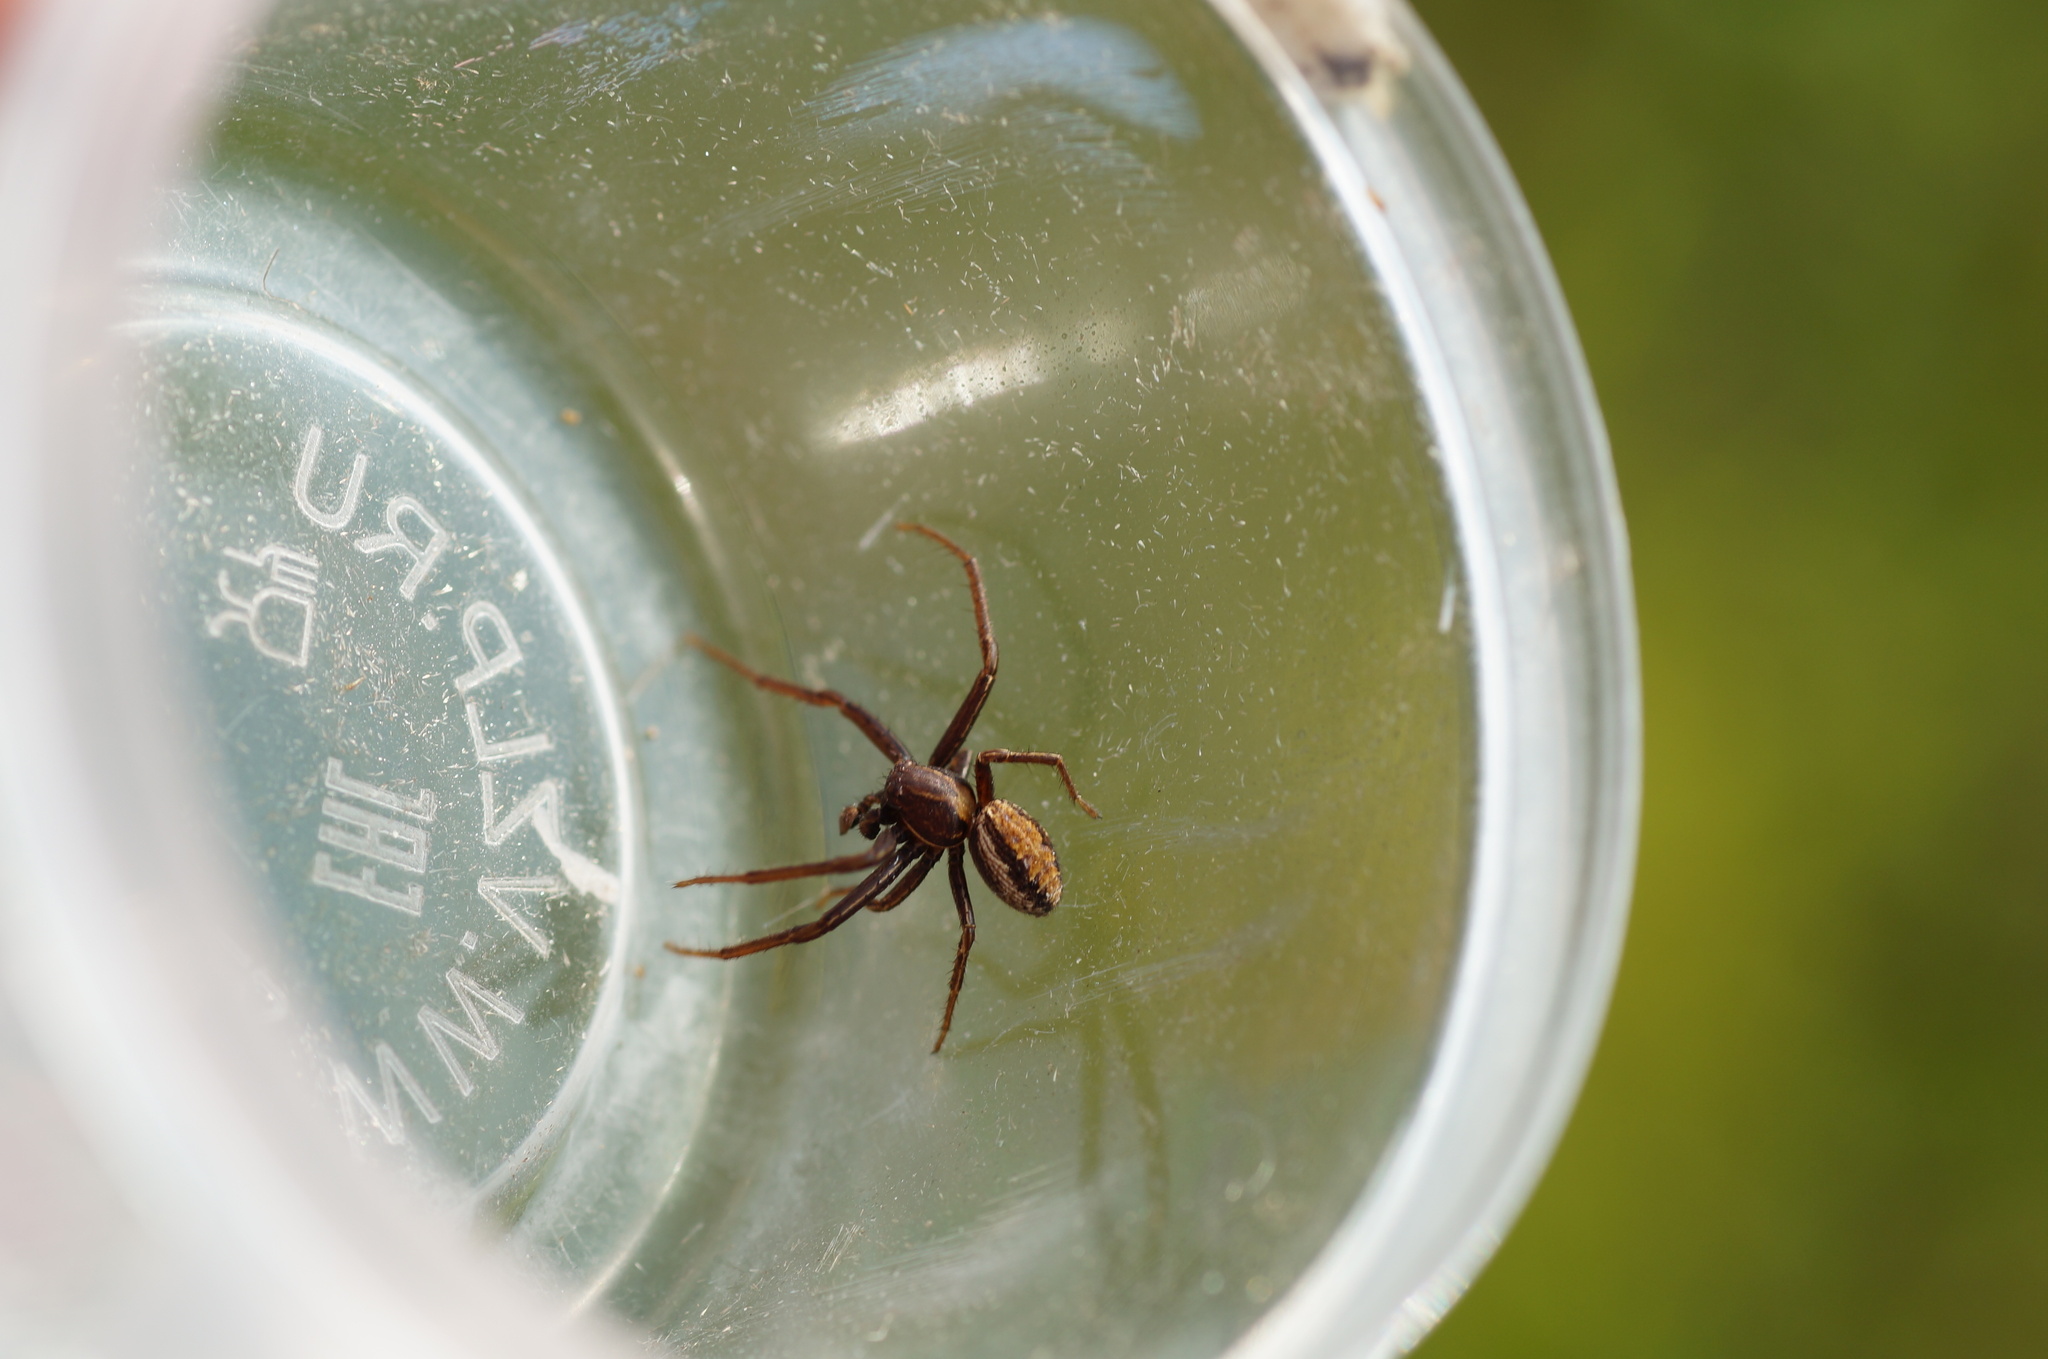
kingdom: Animalia
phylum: Arthropoda
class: Arachnida
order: Araneae
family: Thomisidae
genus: Spiracme
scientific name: Spiracme striatipes
